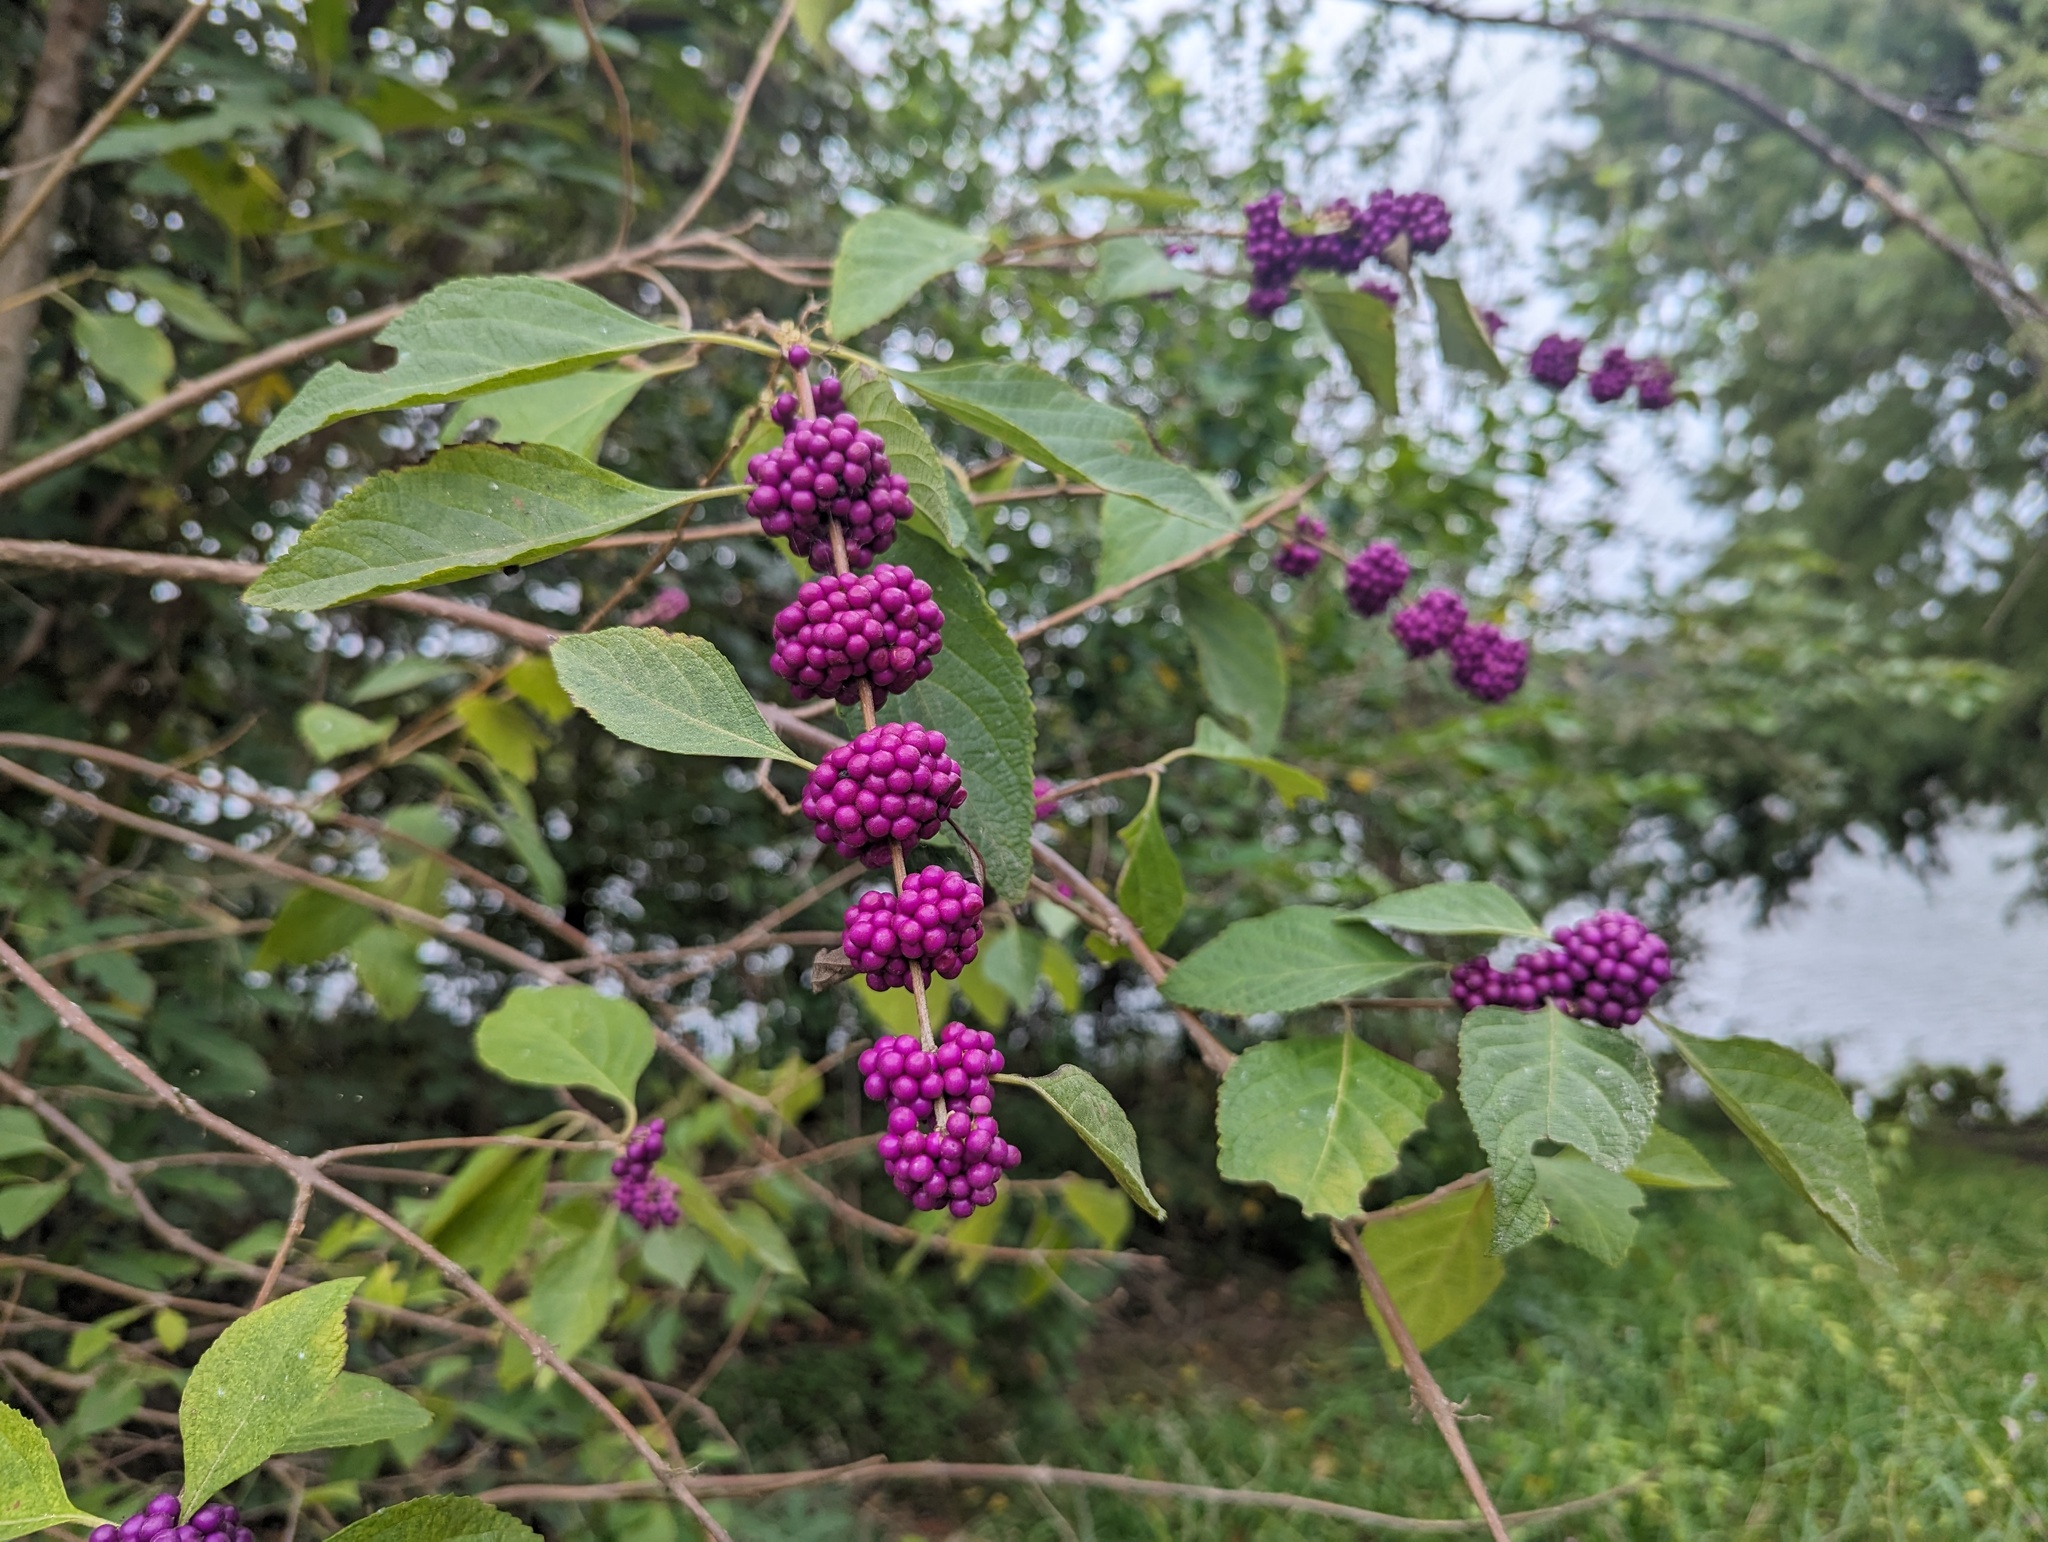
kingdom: Plantae
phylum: Tracheophyta
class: Magnoliopsida
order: Lamiales
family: Lamiaceae
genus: Callicarpa
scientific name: Callicarpa americana
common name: American beautyberry
